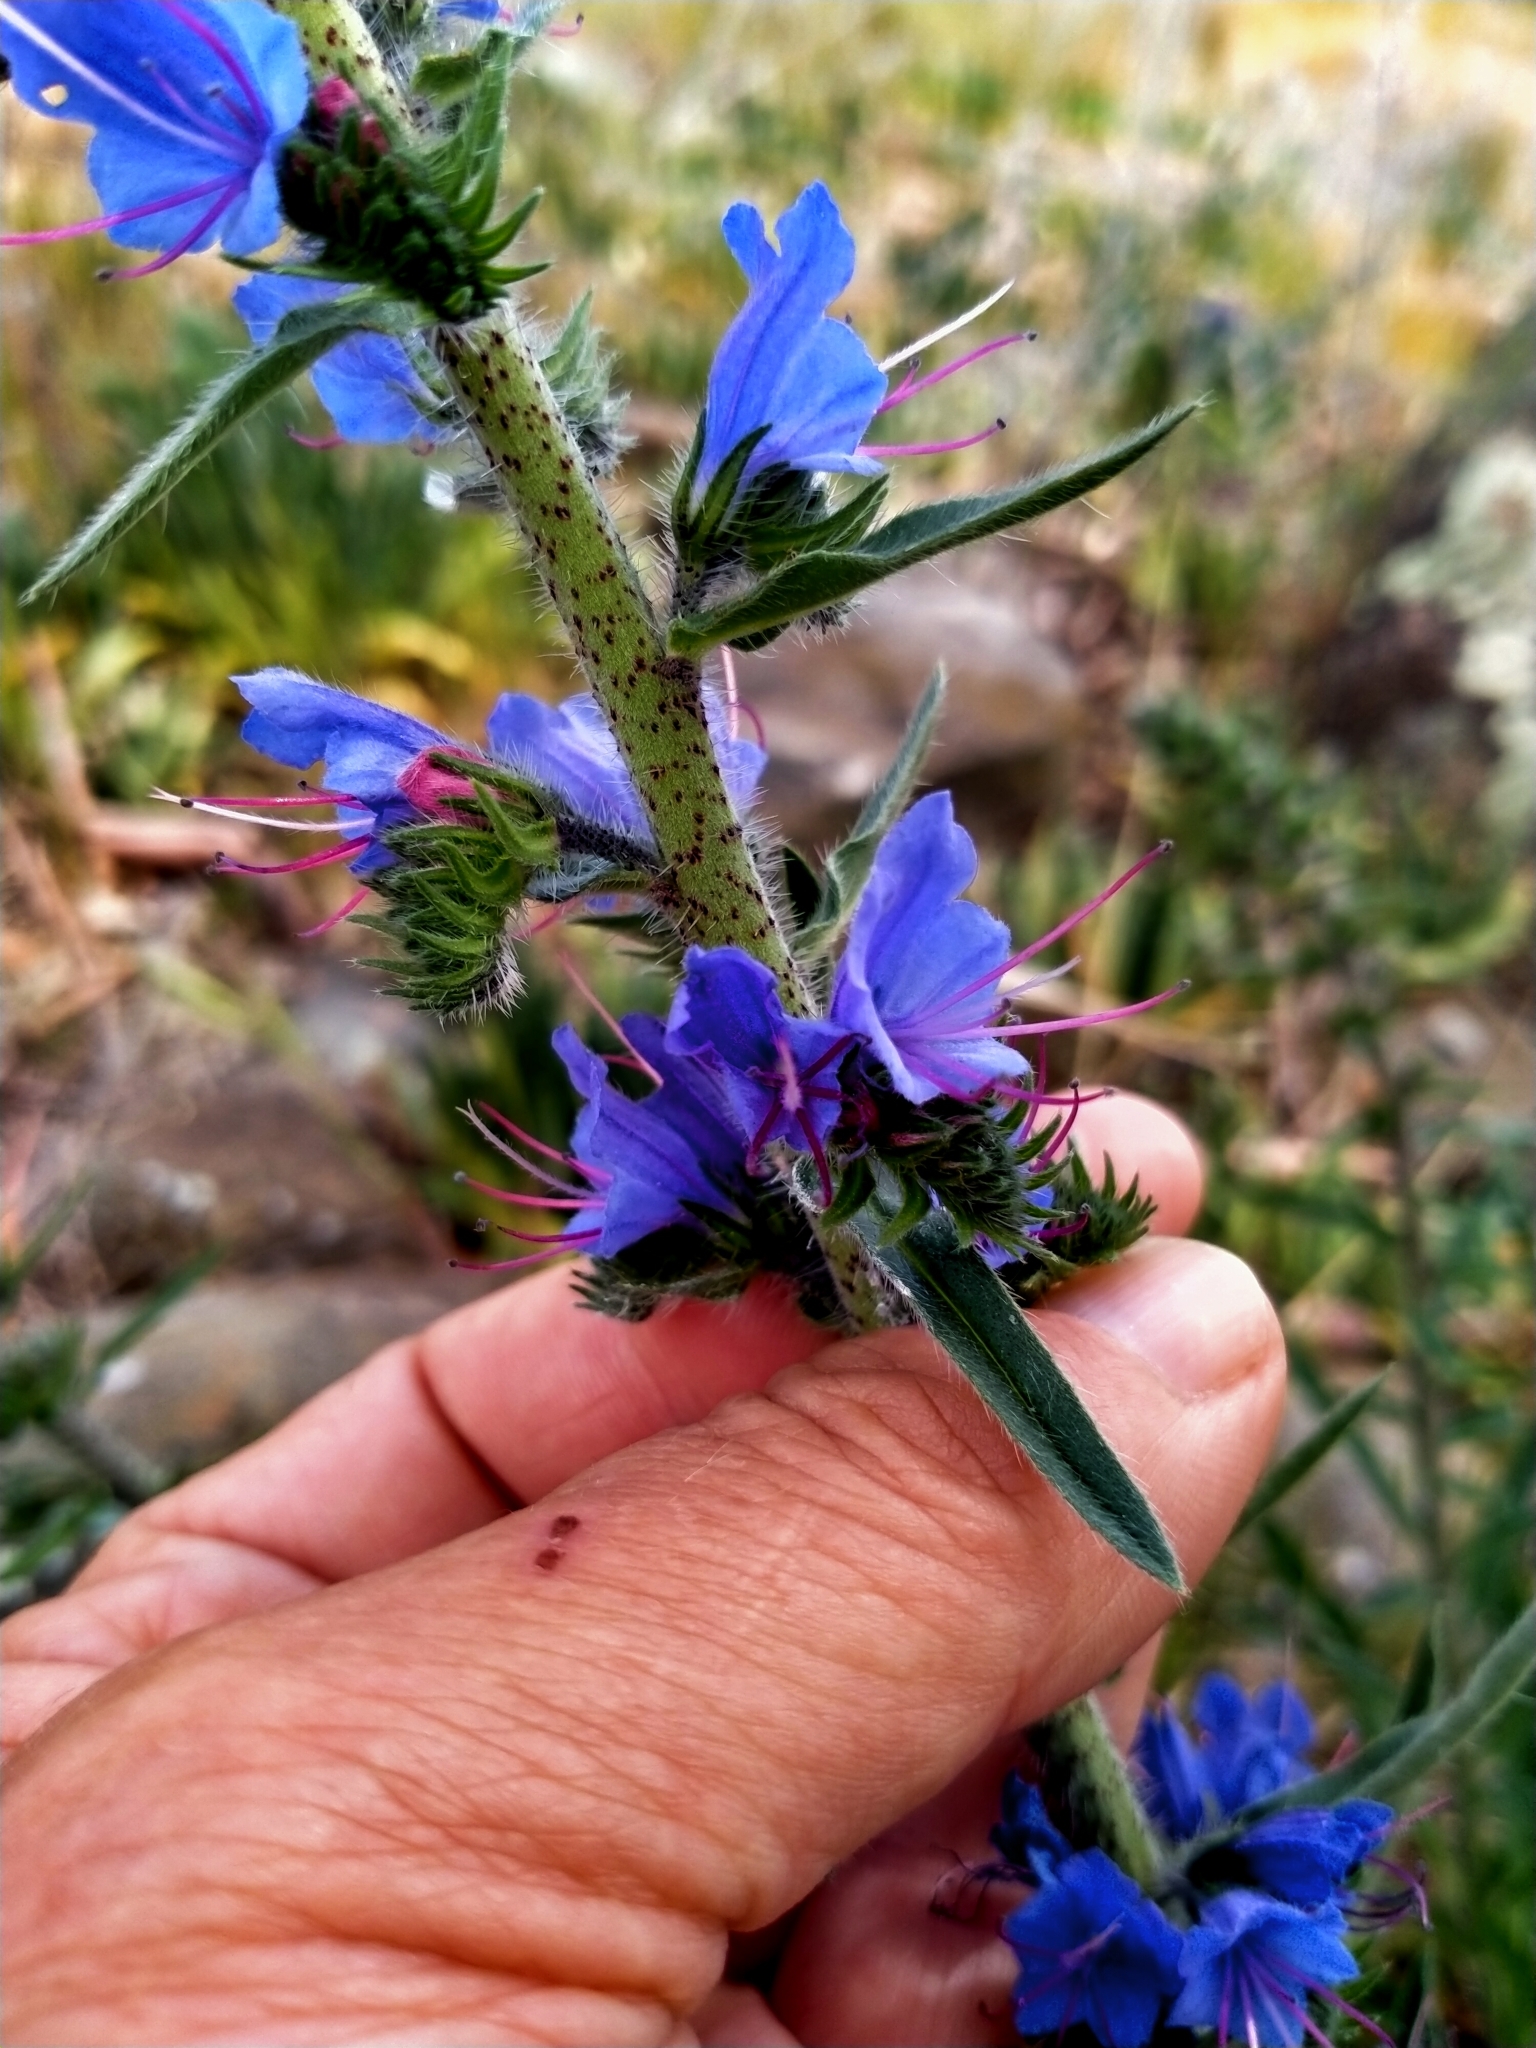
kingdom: Plantae
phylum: Tracheophyta
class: Magnoliopsida
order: Boraginales
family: Boraginaceae
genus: Echium
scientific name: Echium vulgare
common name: Common viper's bugloss
